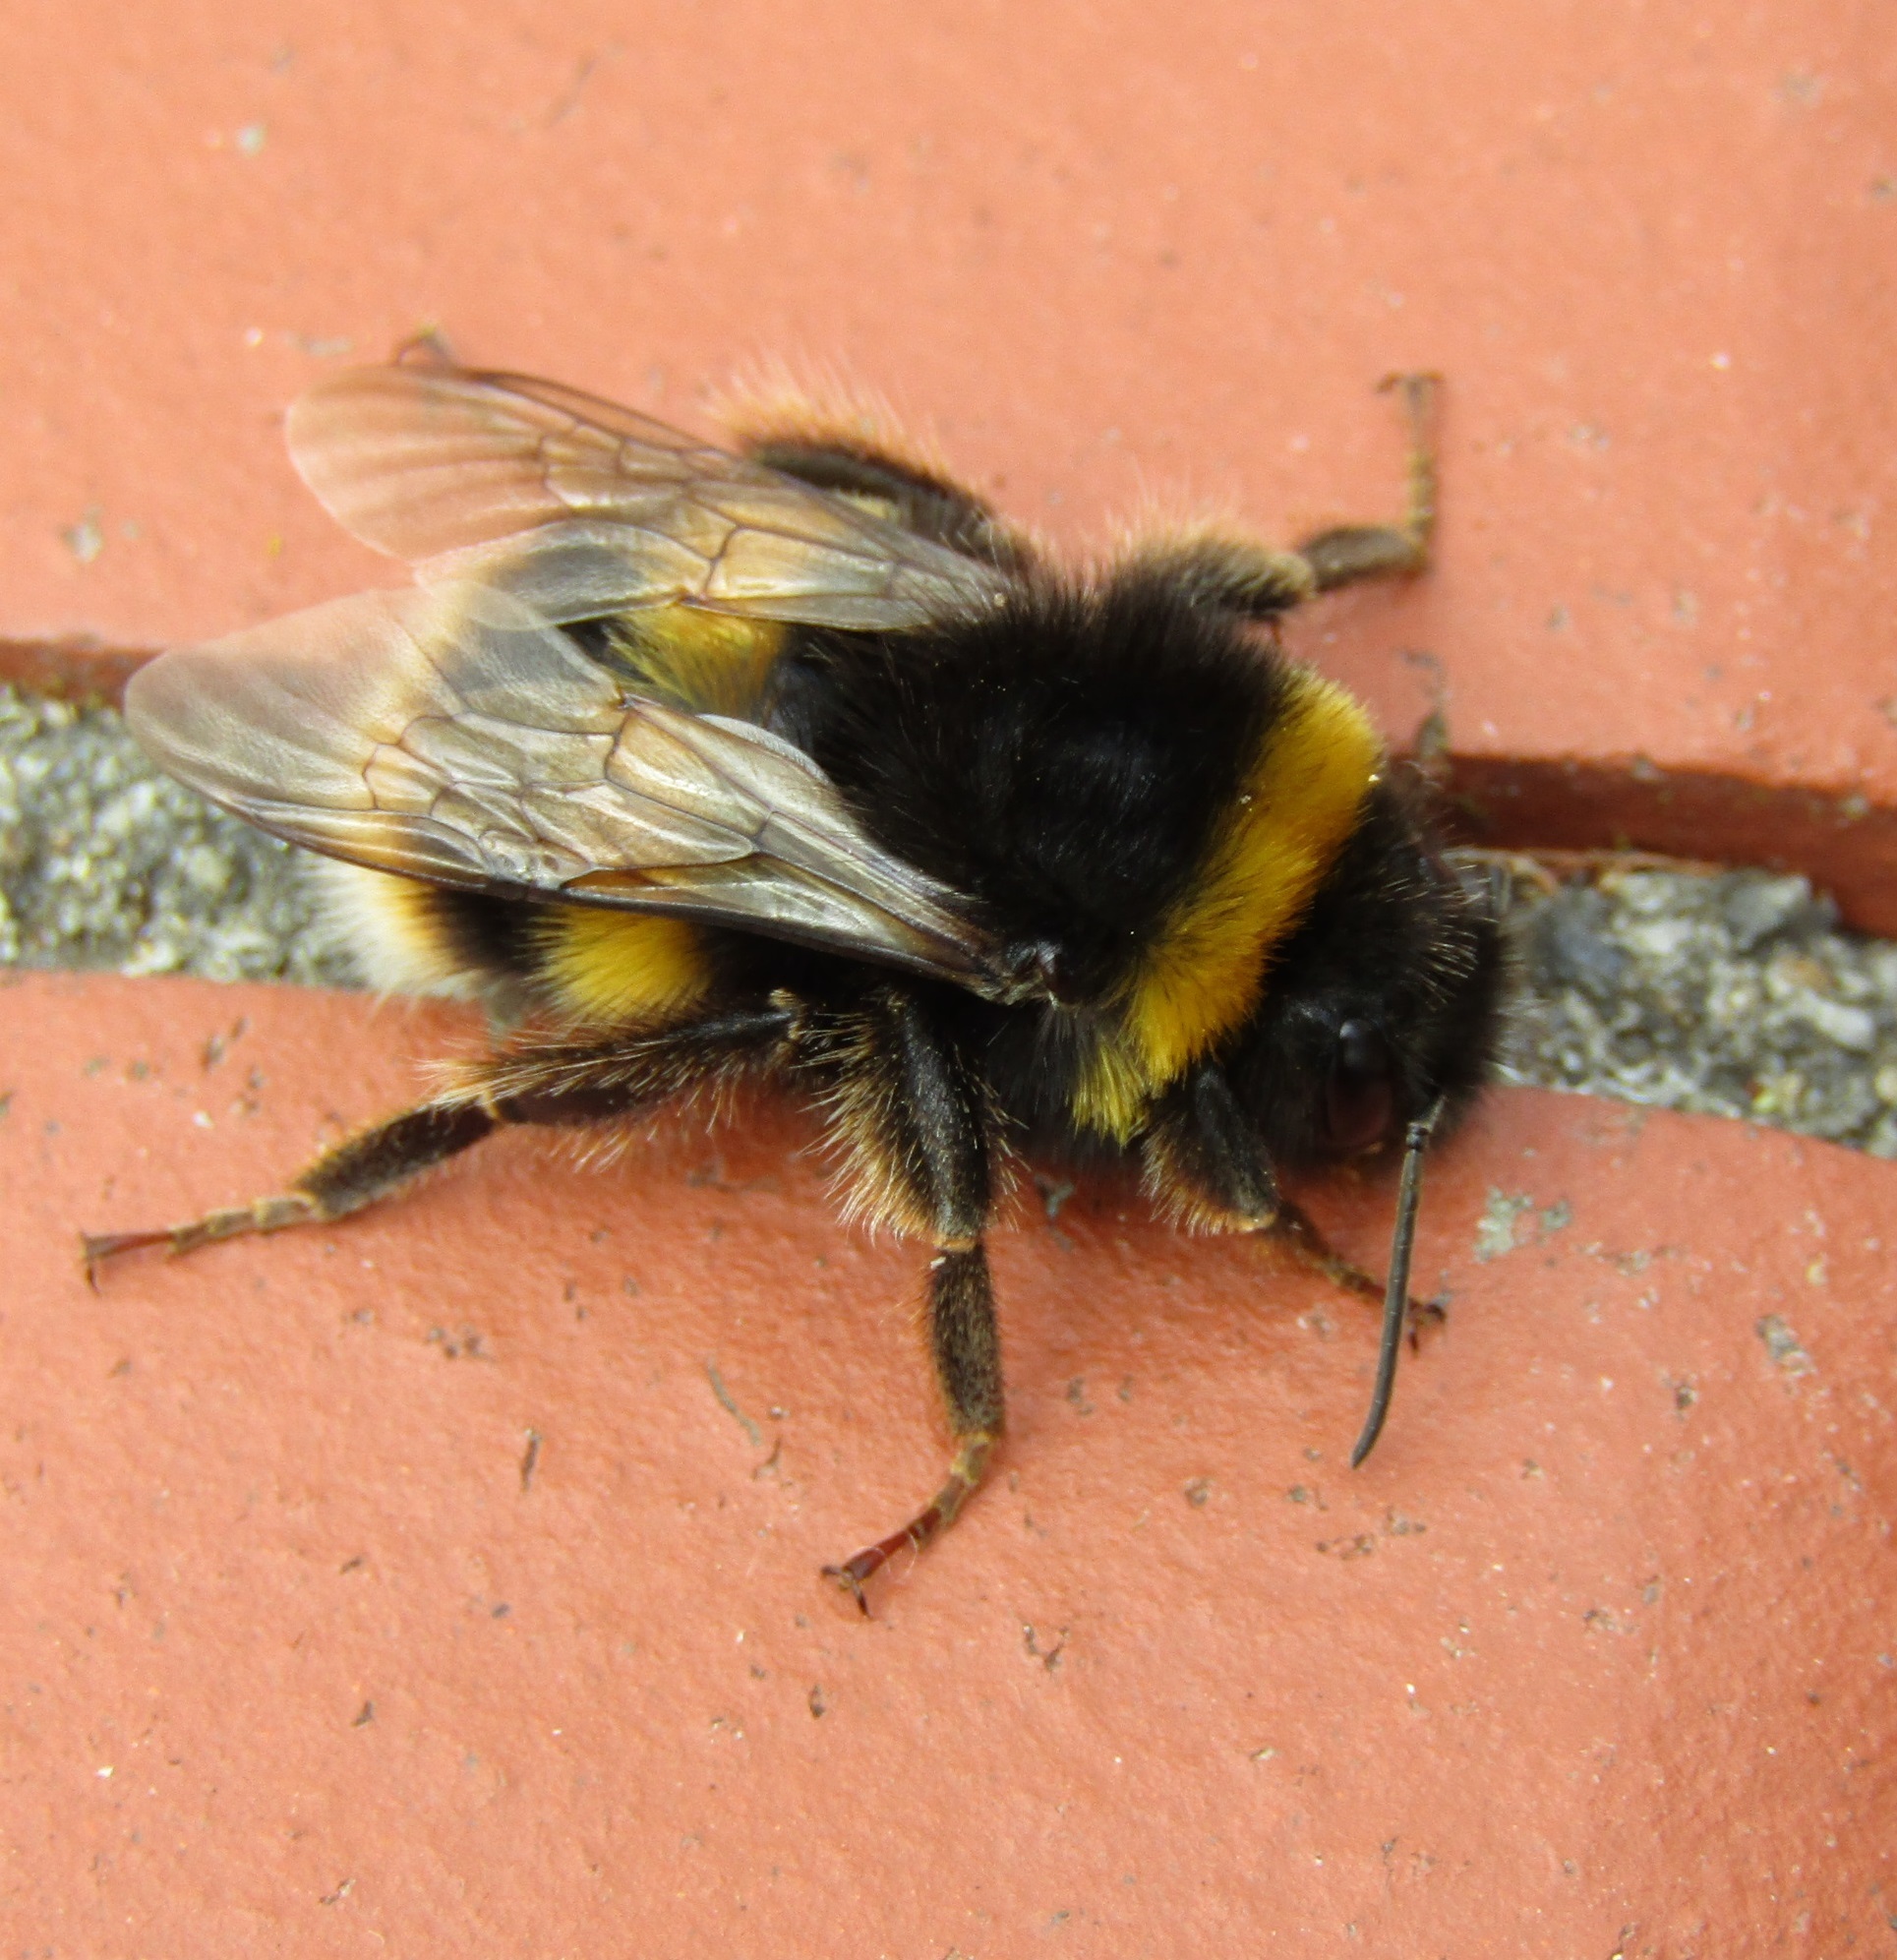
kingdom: Animalia
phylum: Arthropoda
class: Insecta
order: Hymenoptera
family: Apidae
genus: Bombus
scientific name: Bombus terrestris
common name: Buff-tailed bumblebee
